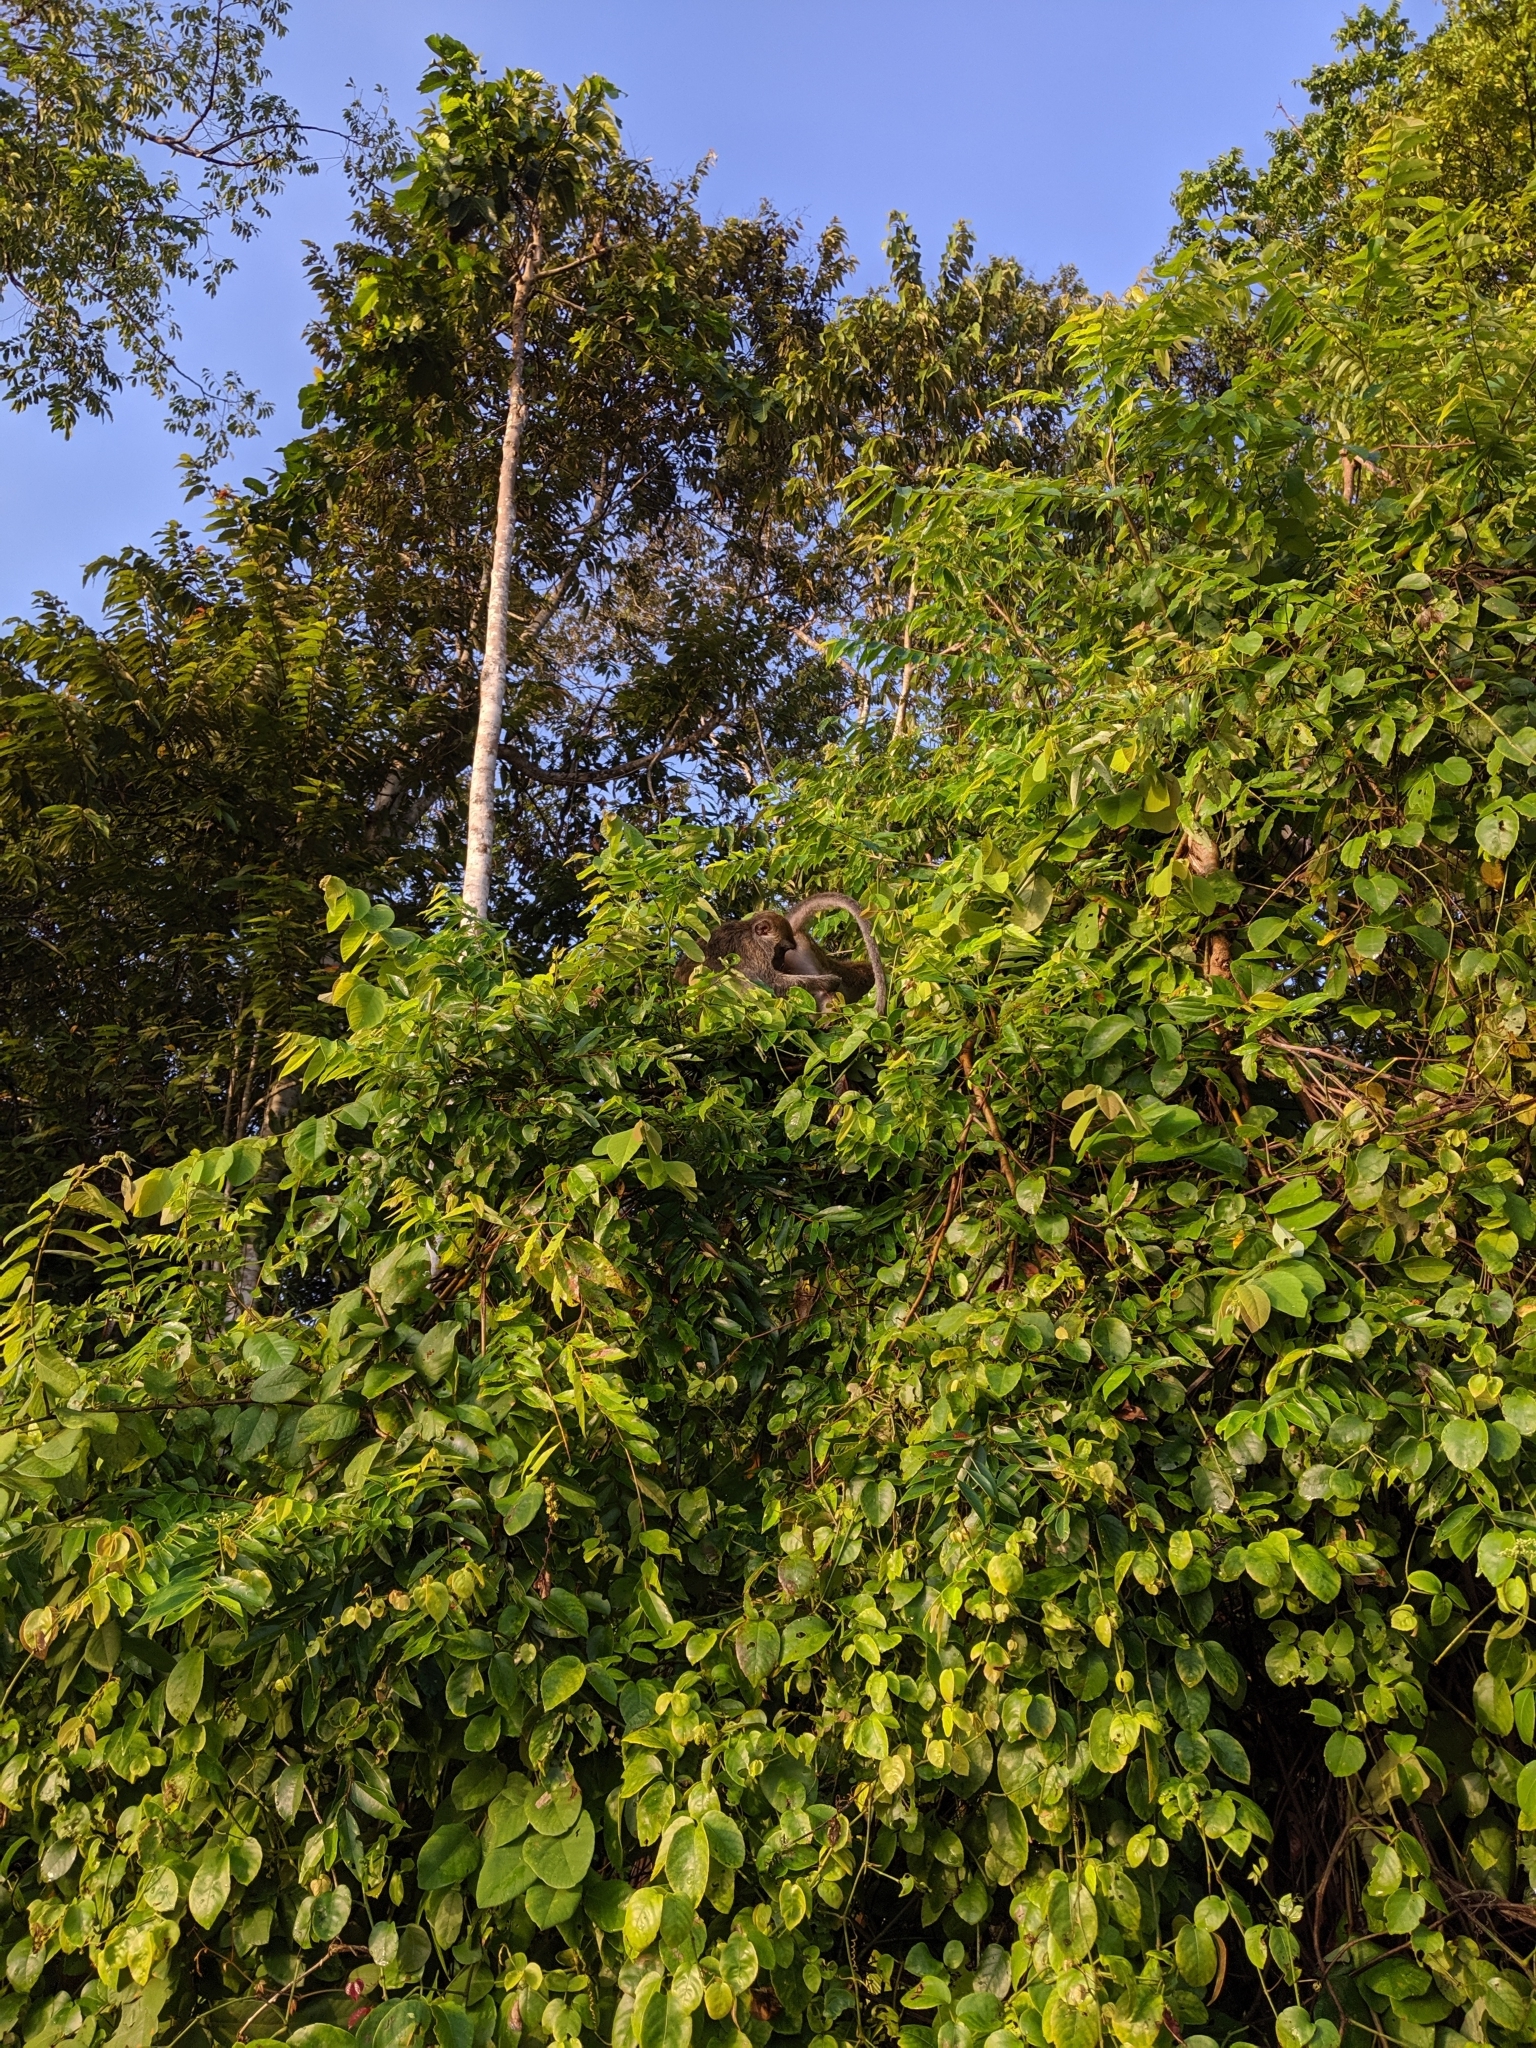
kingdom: Animalia
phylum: Chordata
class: Mammalia
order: Primates
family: Cercopithecidae
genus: Macaca
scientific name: Macaca fascicularis
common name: Crab-eating macaque
